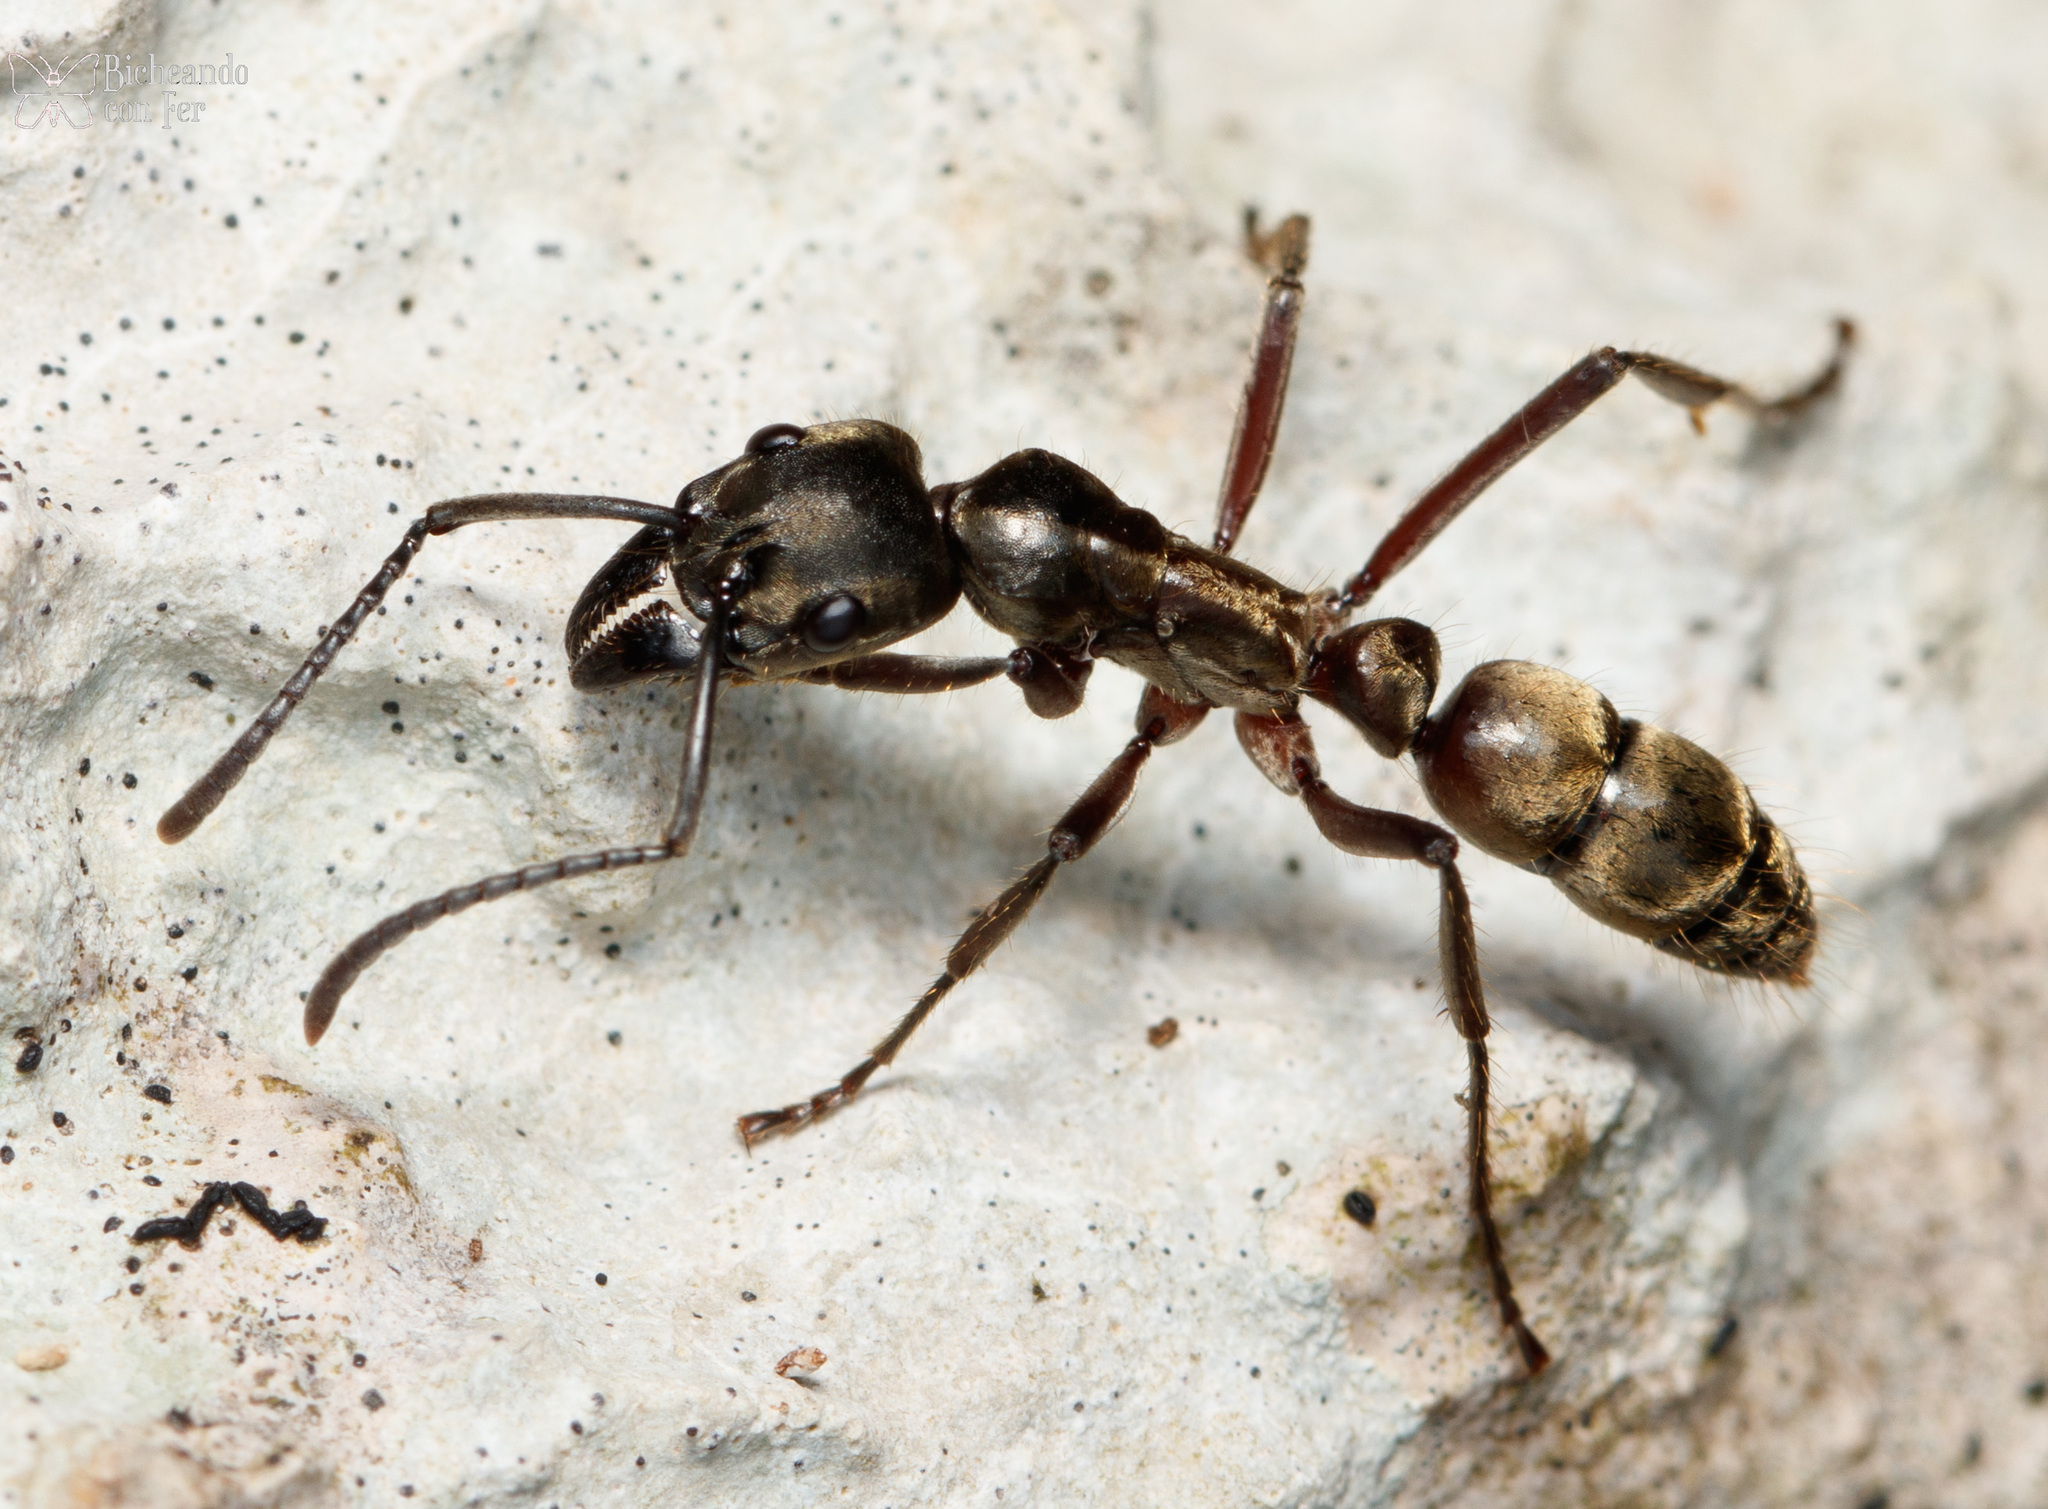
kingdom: Animalia
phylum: Arthropoda
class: Insecta
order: Hymenoptera
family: Formicidae
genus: Pachycondyla
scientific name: Pachycondyla villosa
